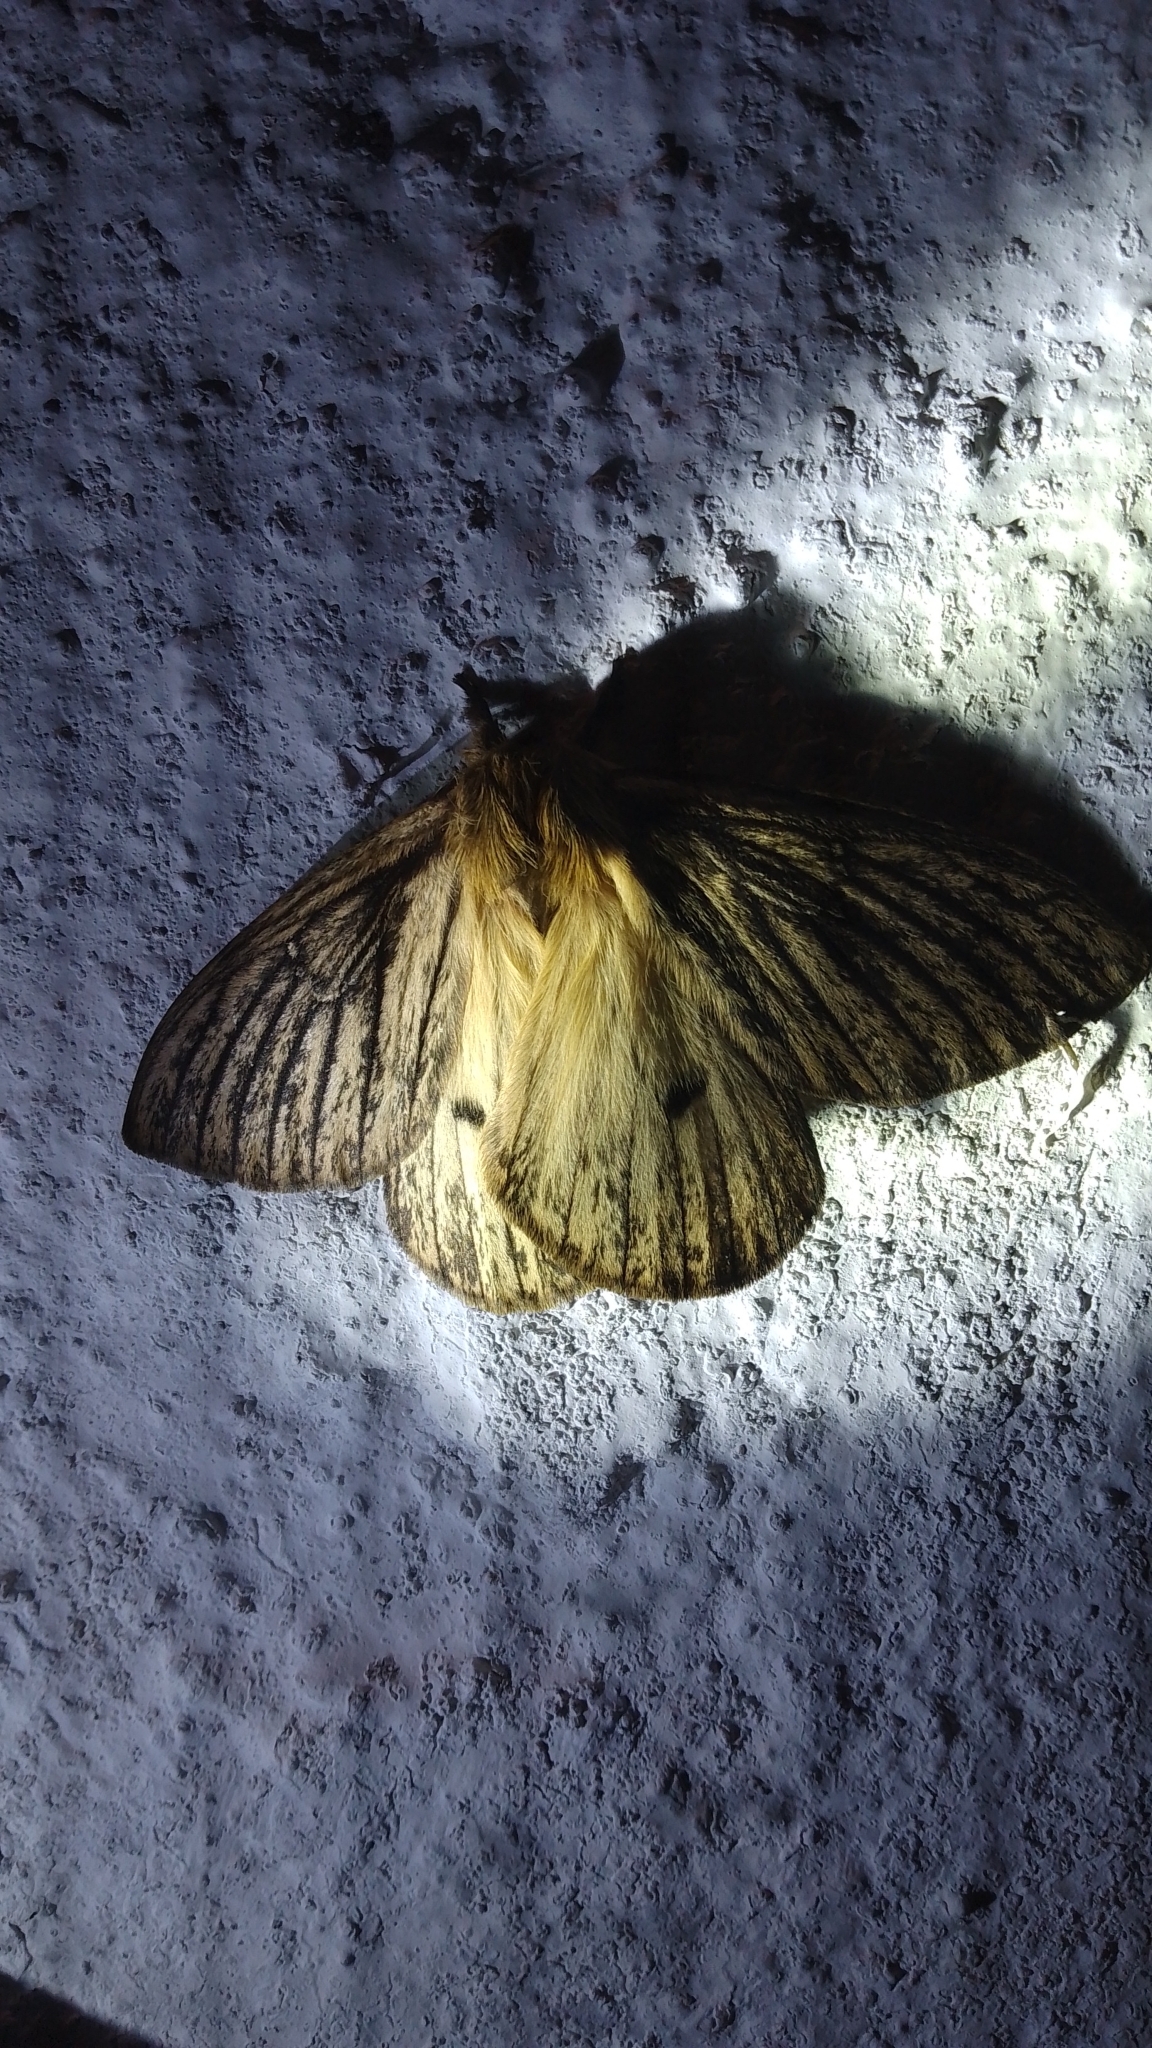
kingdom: Animalia
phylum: Arthropoda
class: Insecta
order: Lepidoptera
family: Saturniidae
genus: Eudyaria
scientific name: Eudyaria zeta
